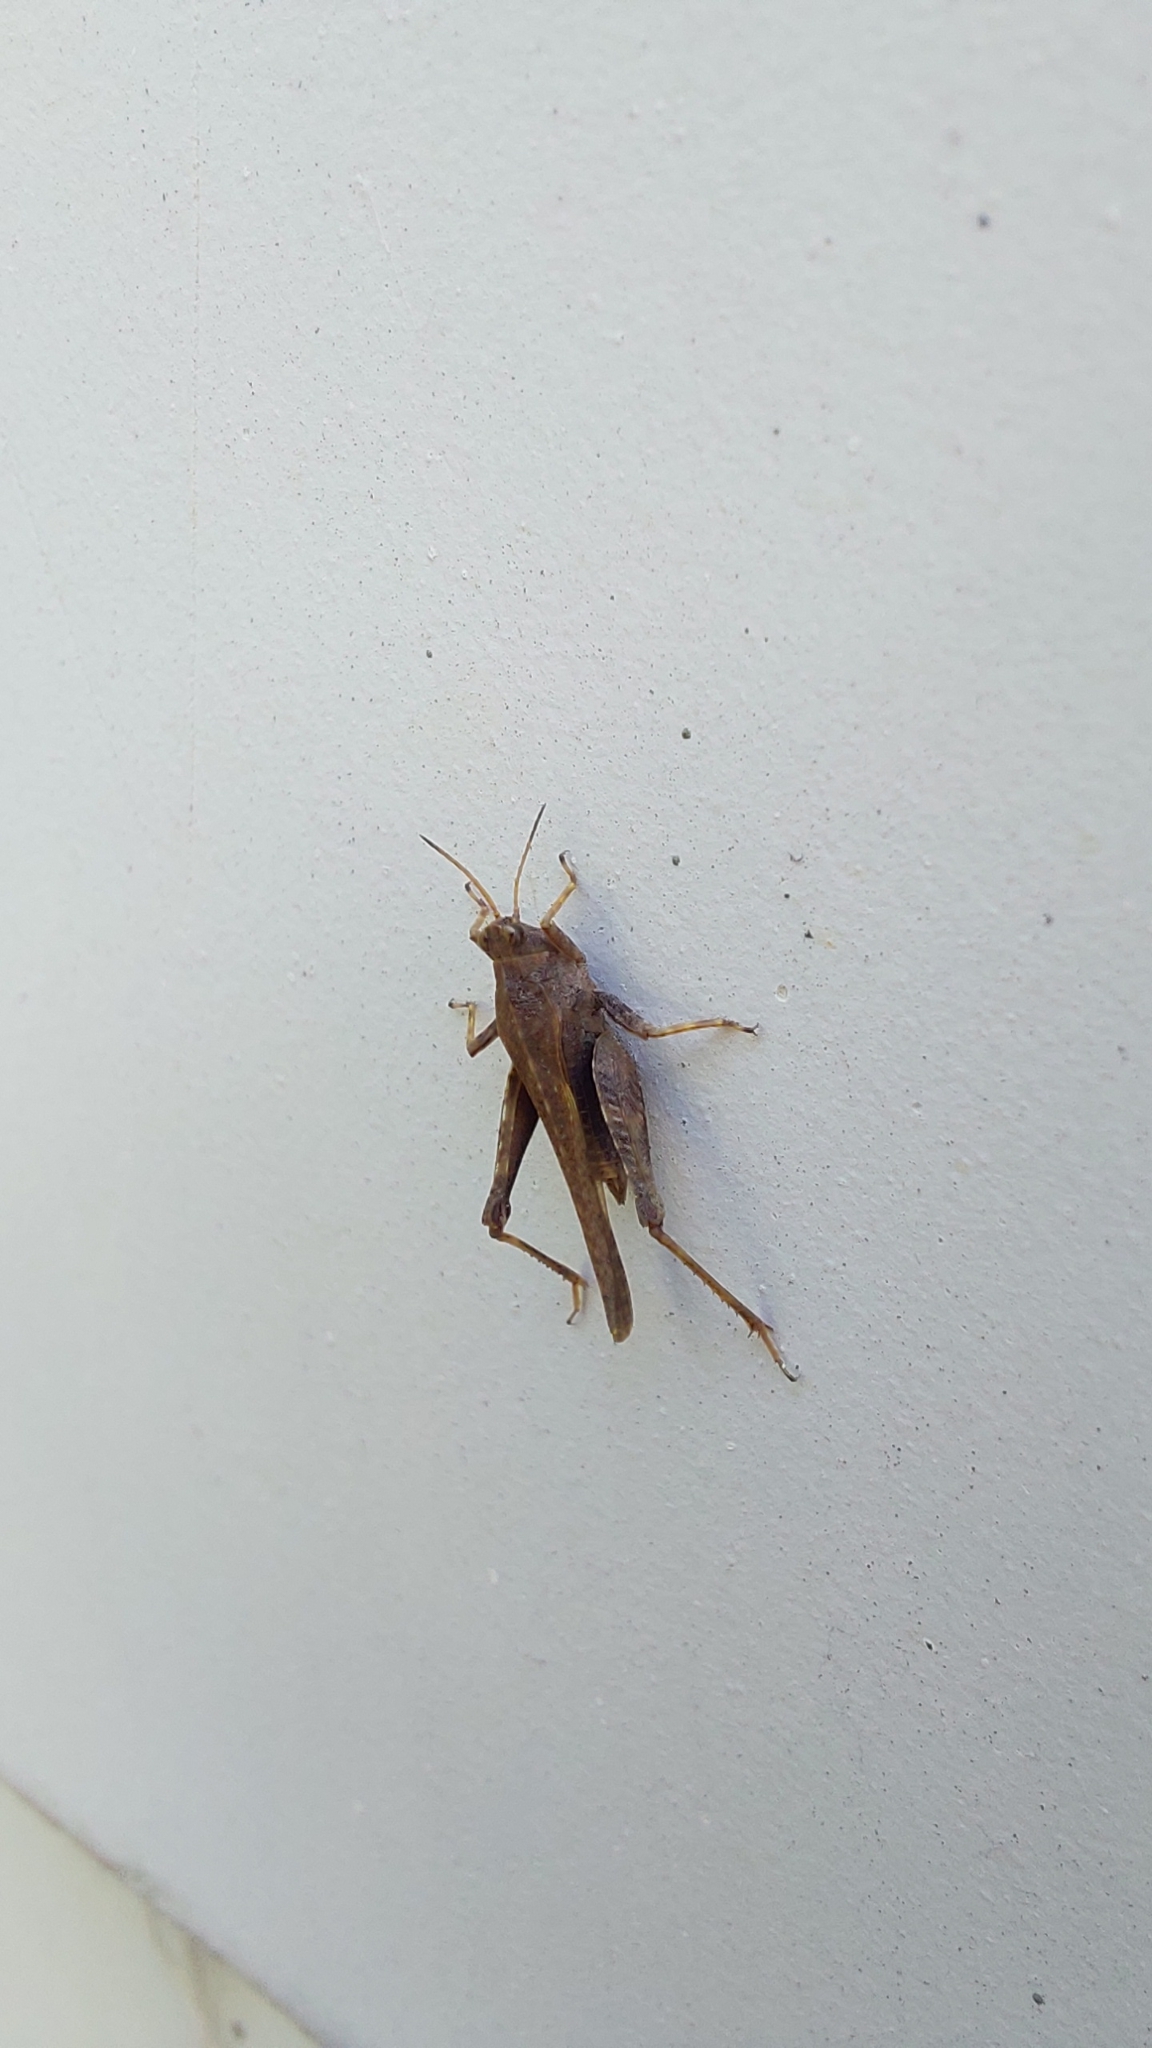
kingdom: Animalia
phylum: Arthropoda
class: Insecta
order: Orthoptera
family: Tetrigidae
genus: Tetrix
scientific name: Tetrix subulata
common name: Slender ground-hopper
